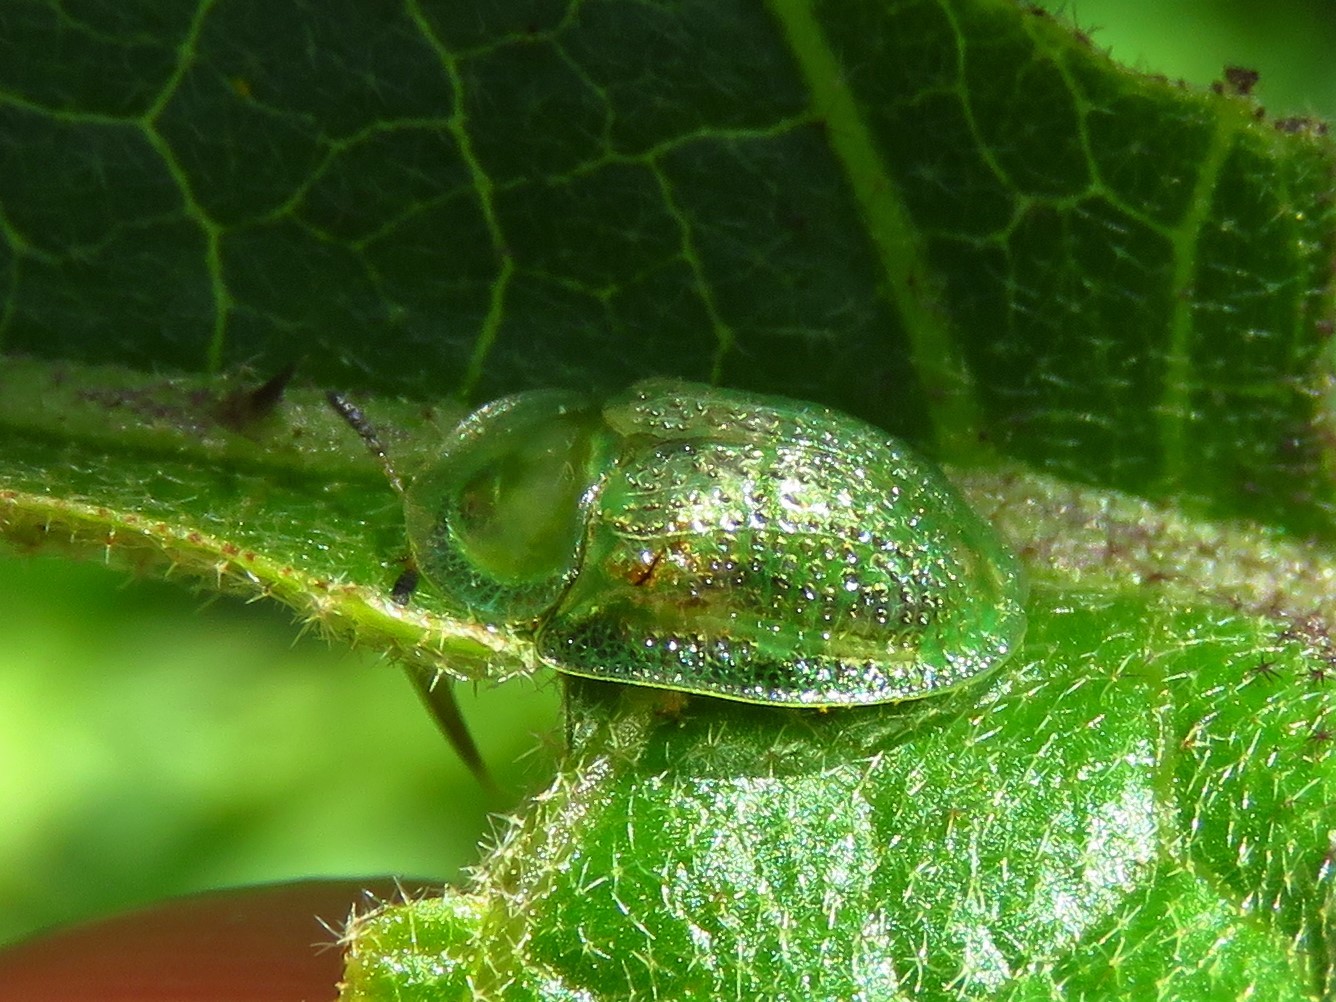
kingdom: Animalia
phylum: Arthropoda
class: Insecta
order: Coleoptera
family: Chrysomelidae
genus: Gratiana
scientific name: Gratiana pallidula
